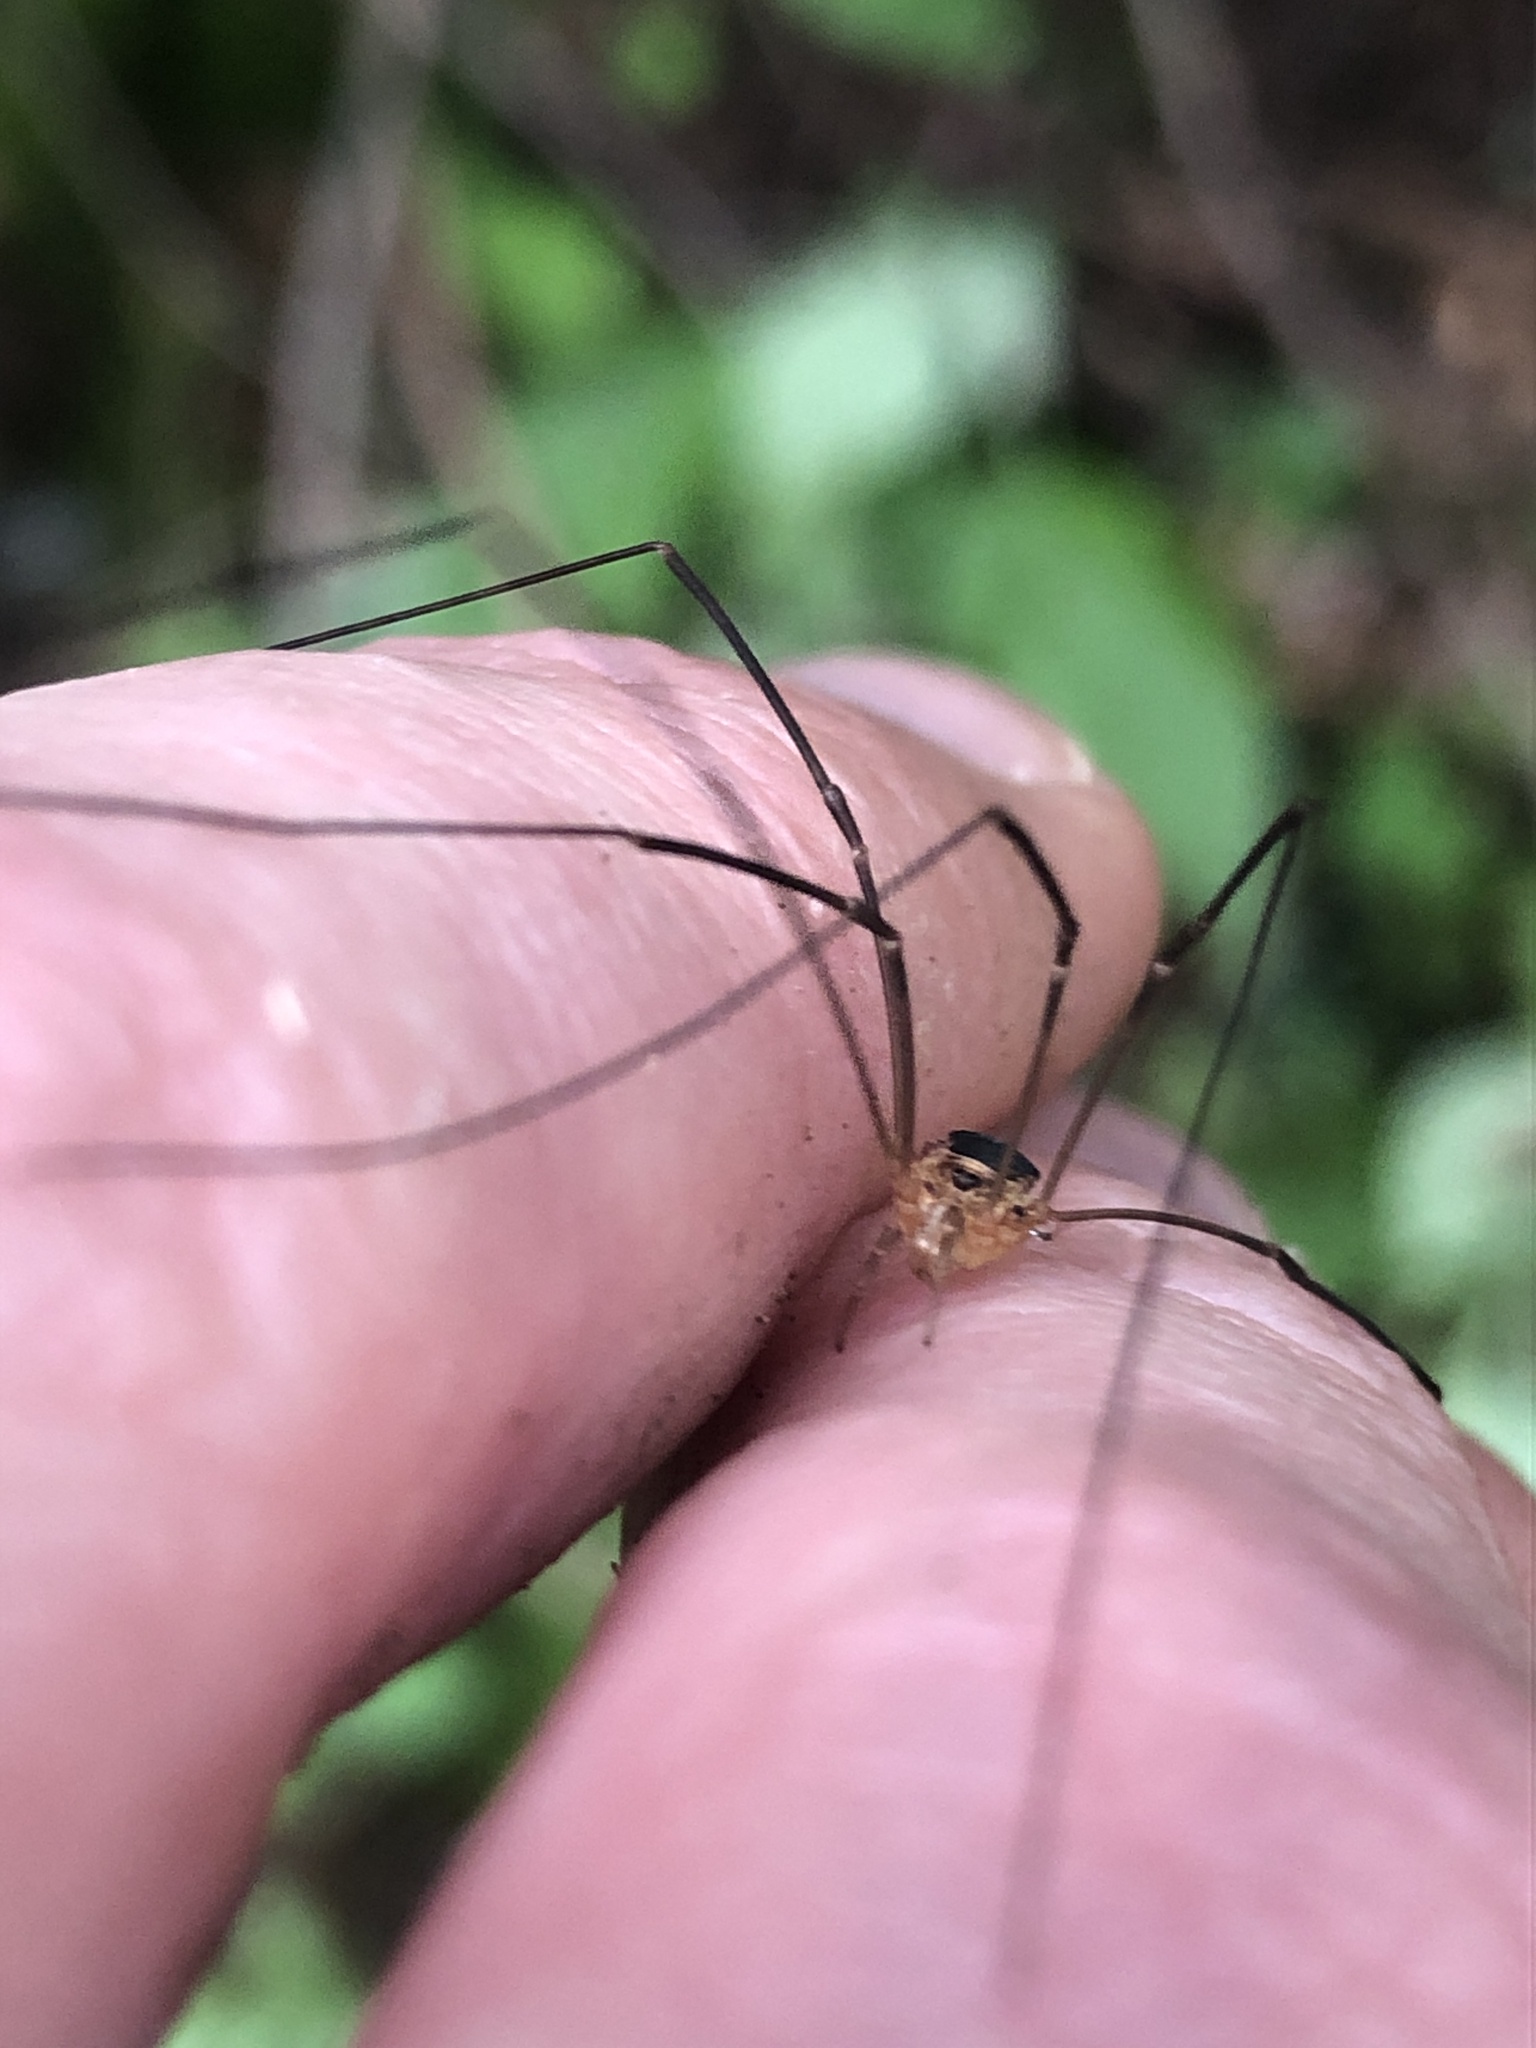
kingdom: Animalia
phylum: Arthropoda
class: Arachnida
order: Opiliones
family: Phalangiidae
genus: Amilenus
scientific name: Amilenus aurantiacus
